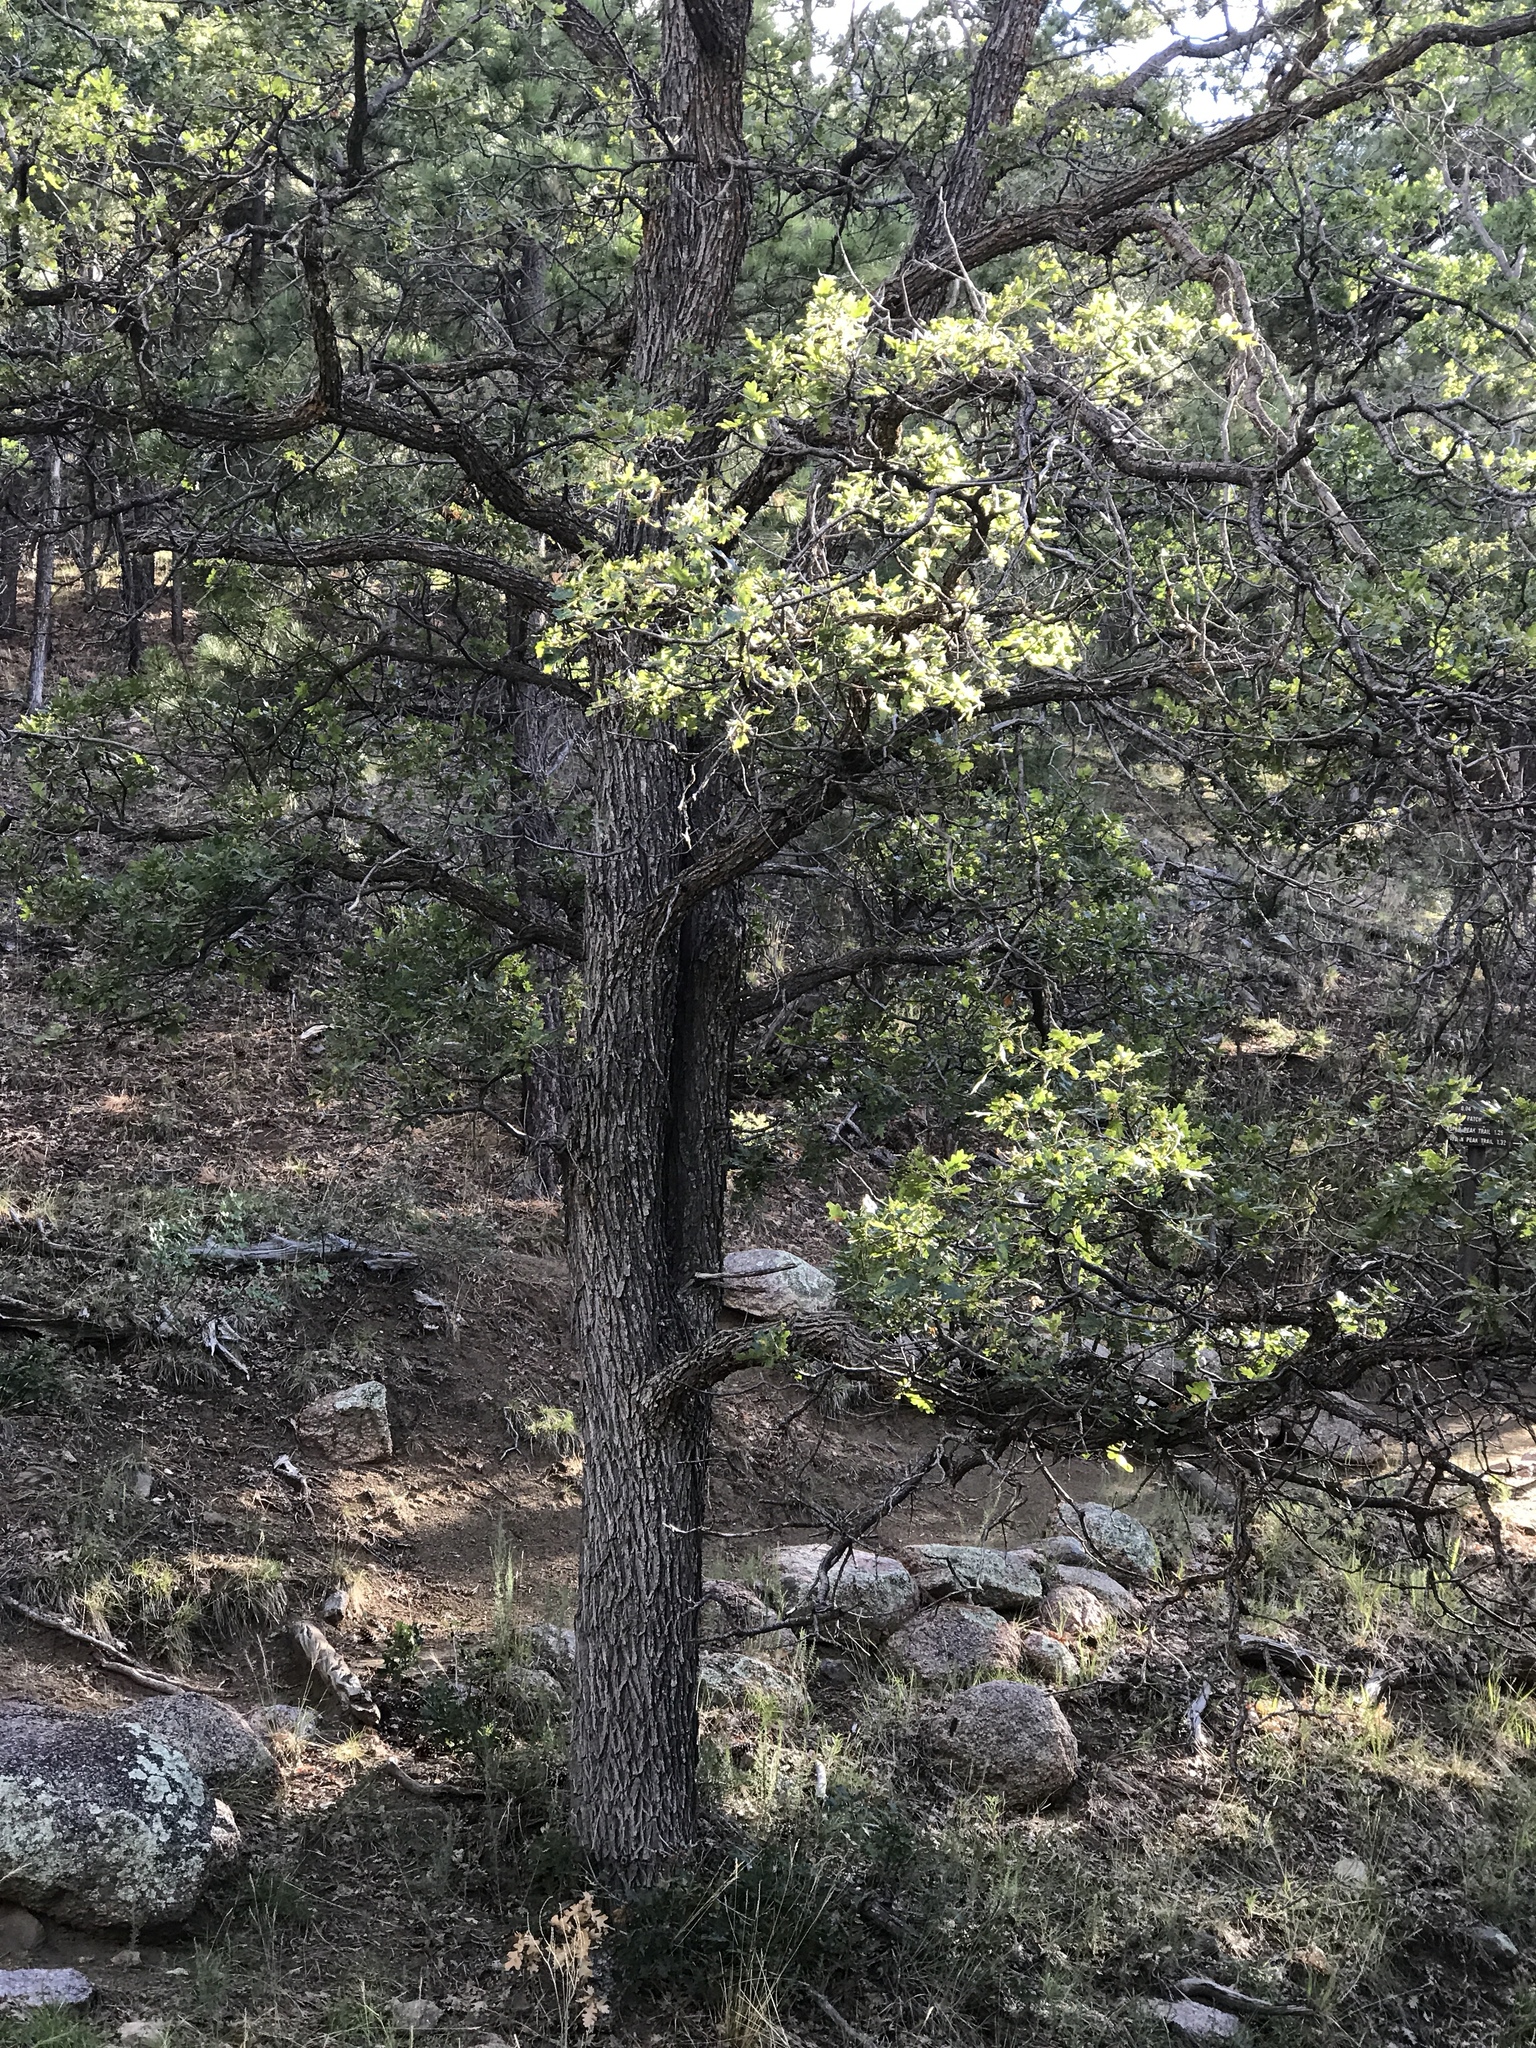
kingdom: Plantae
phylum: Tracheophyta
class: Magnoliopsida
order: Fagales
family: Fagaceae
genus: Quercus
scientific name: Quercus gambelii
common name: Gambel oak
